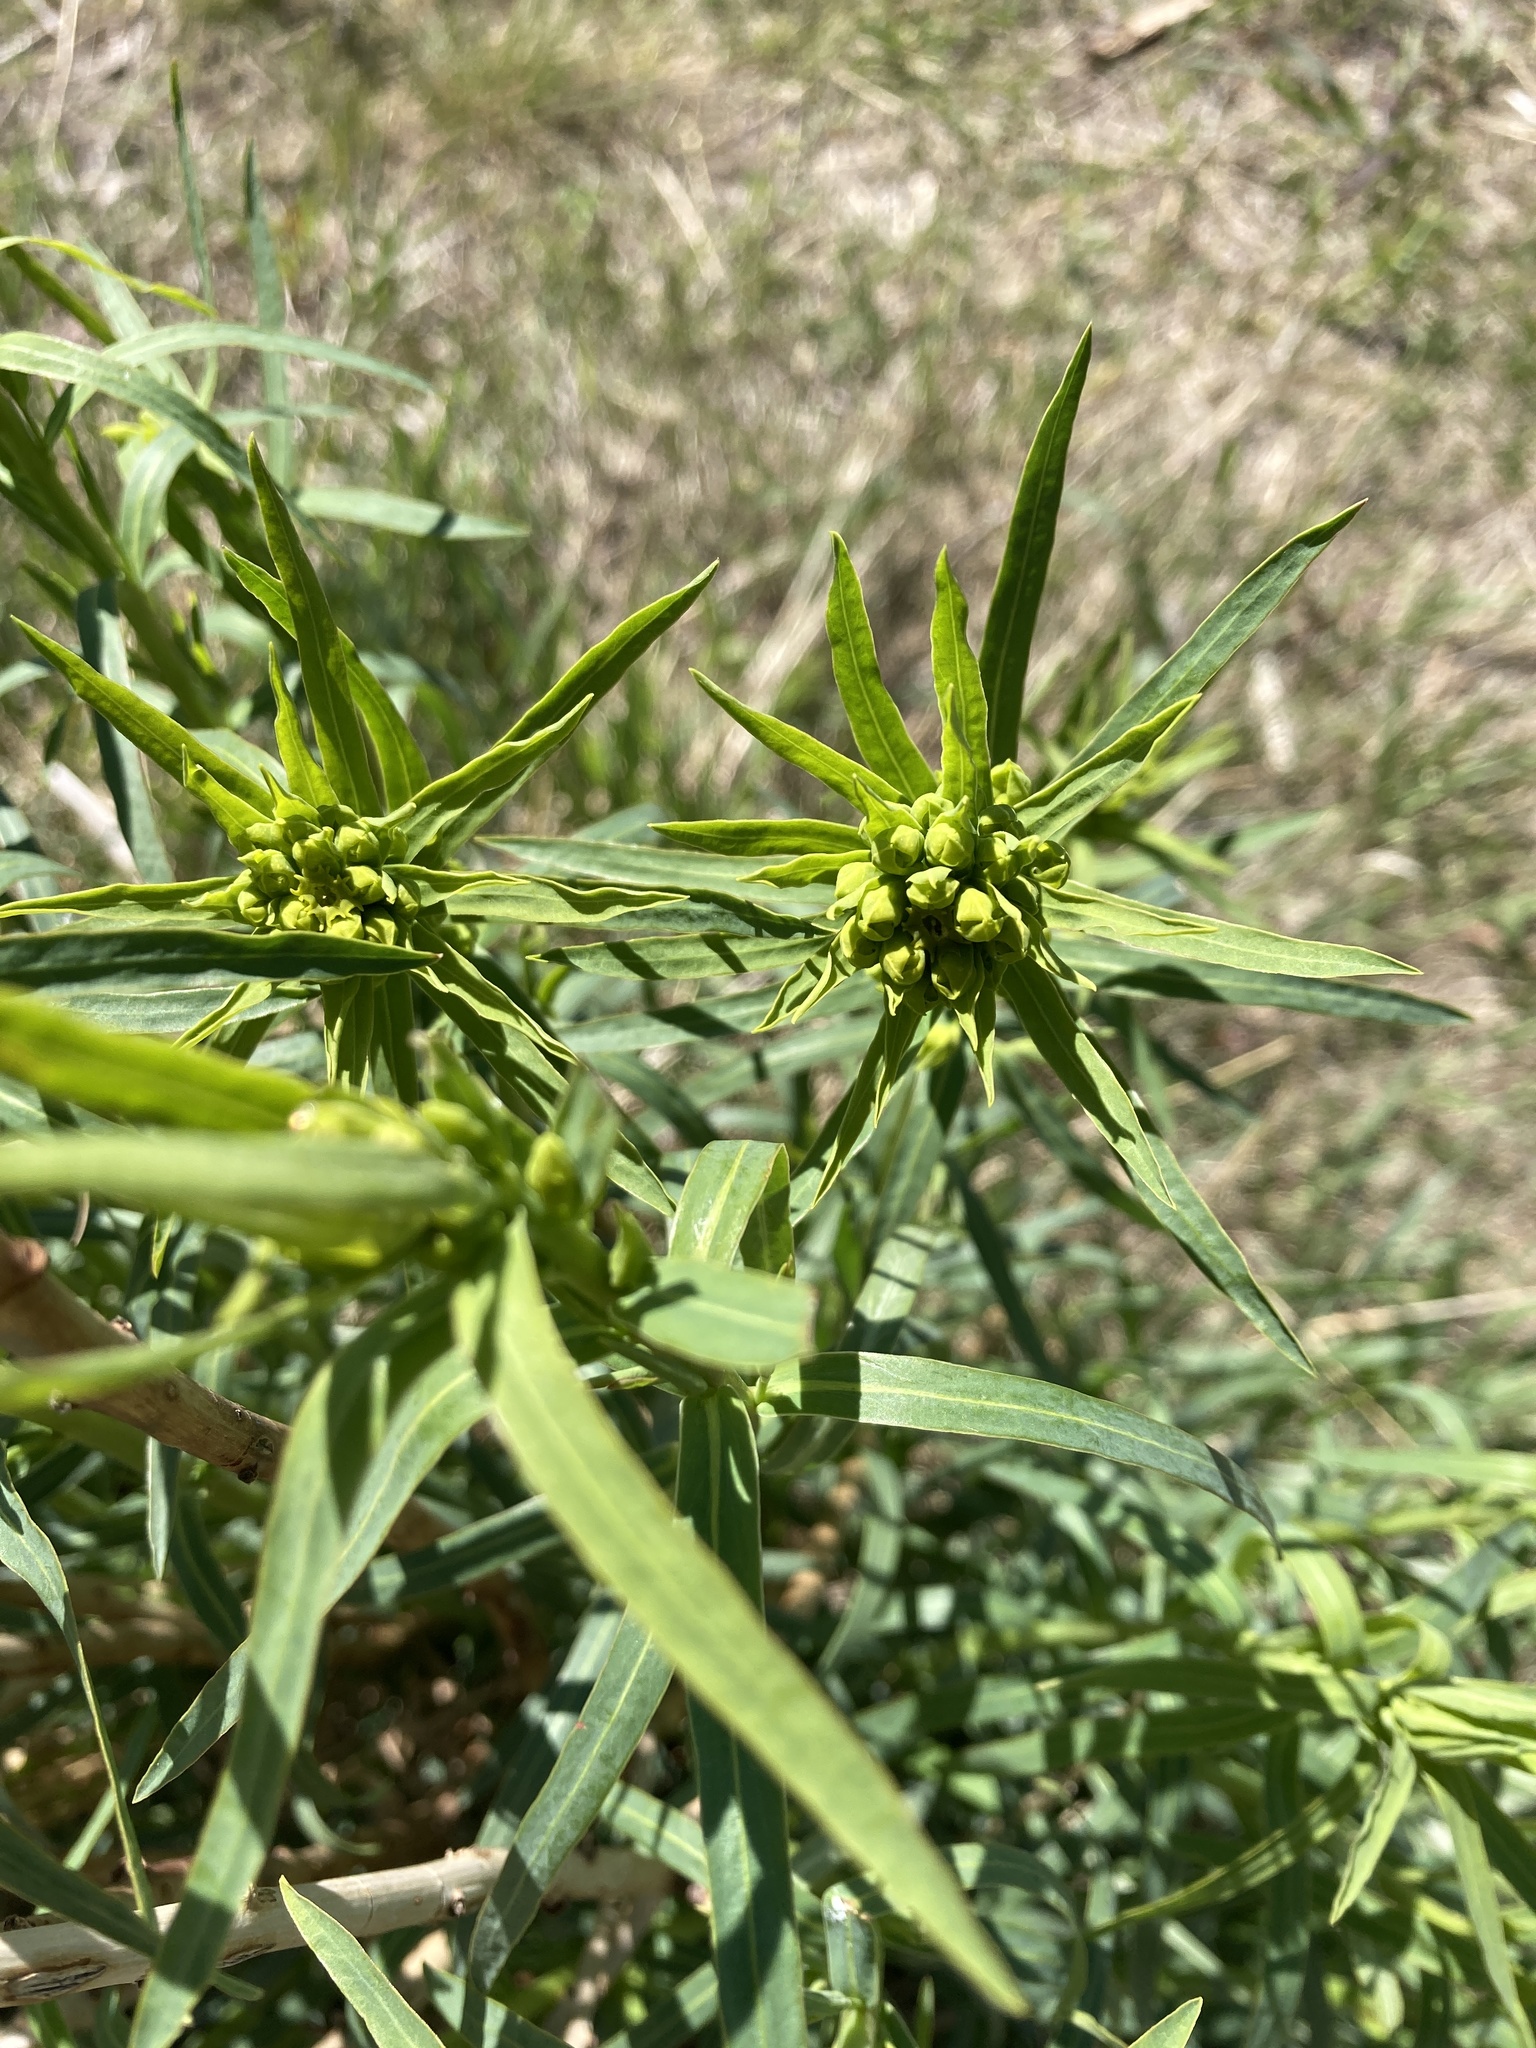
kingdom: Plantae
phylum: Tracheophyta
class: Magnoliopsida
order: Malpighiales
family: Euphorbiaceae
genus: Euphorbia
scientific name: Euphorbia virgata
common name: Leafy spurge
